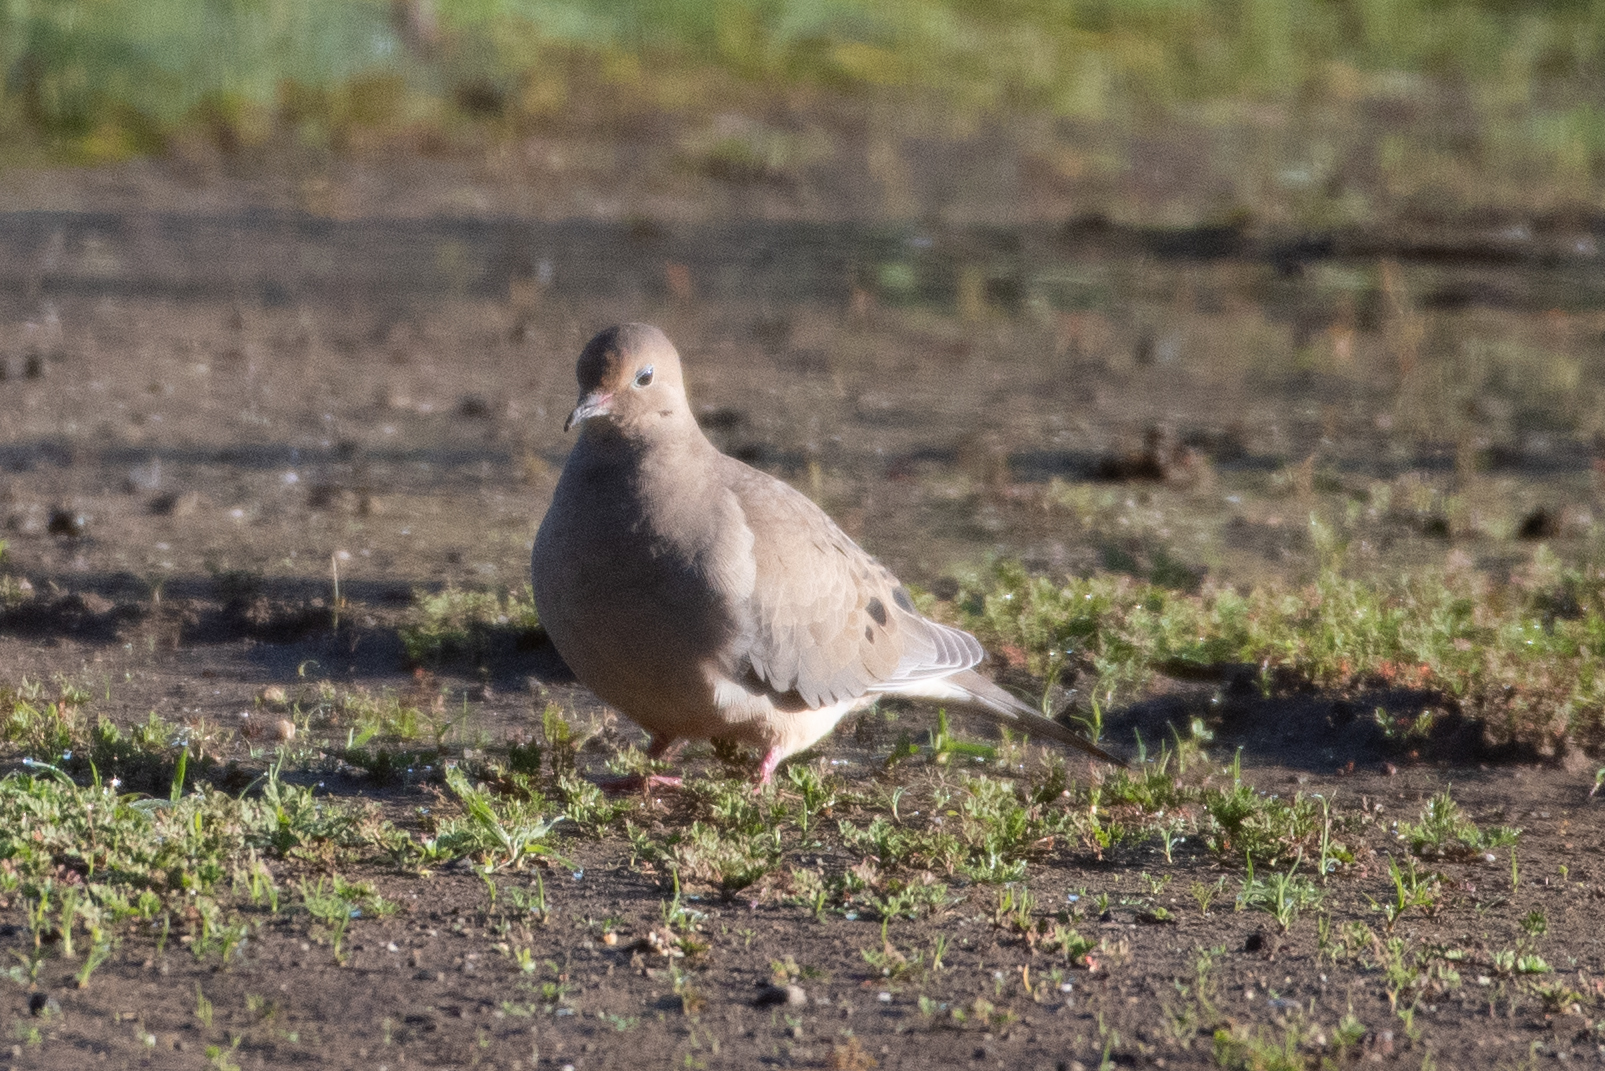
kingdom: Animalia
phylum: Chordata
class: Aves
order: Columbiformes
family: Columbidae
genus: Zenaida
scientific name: Zenaida macroura
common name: Mourning dove
